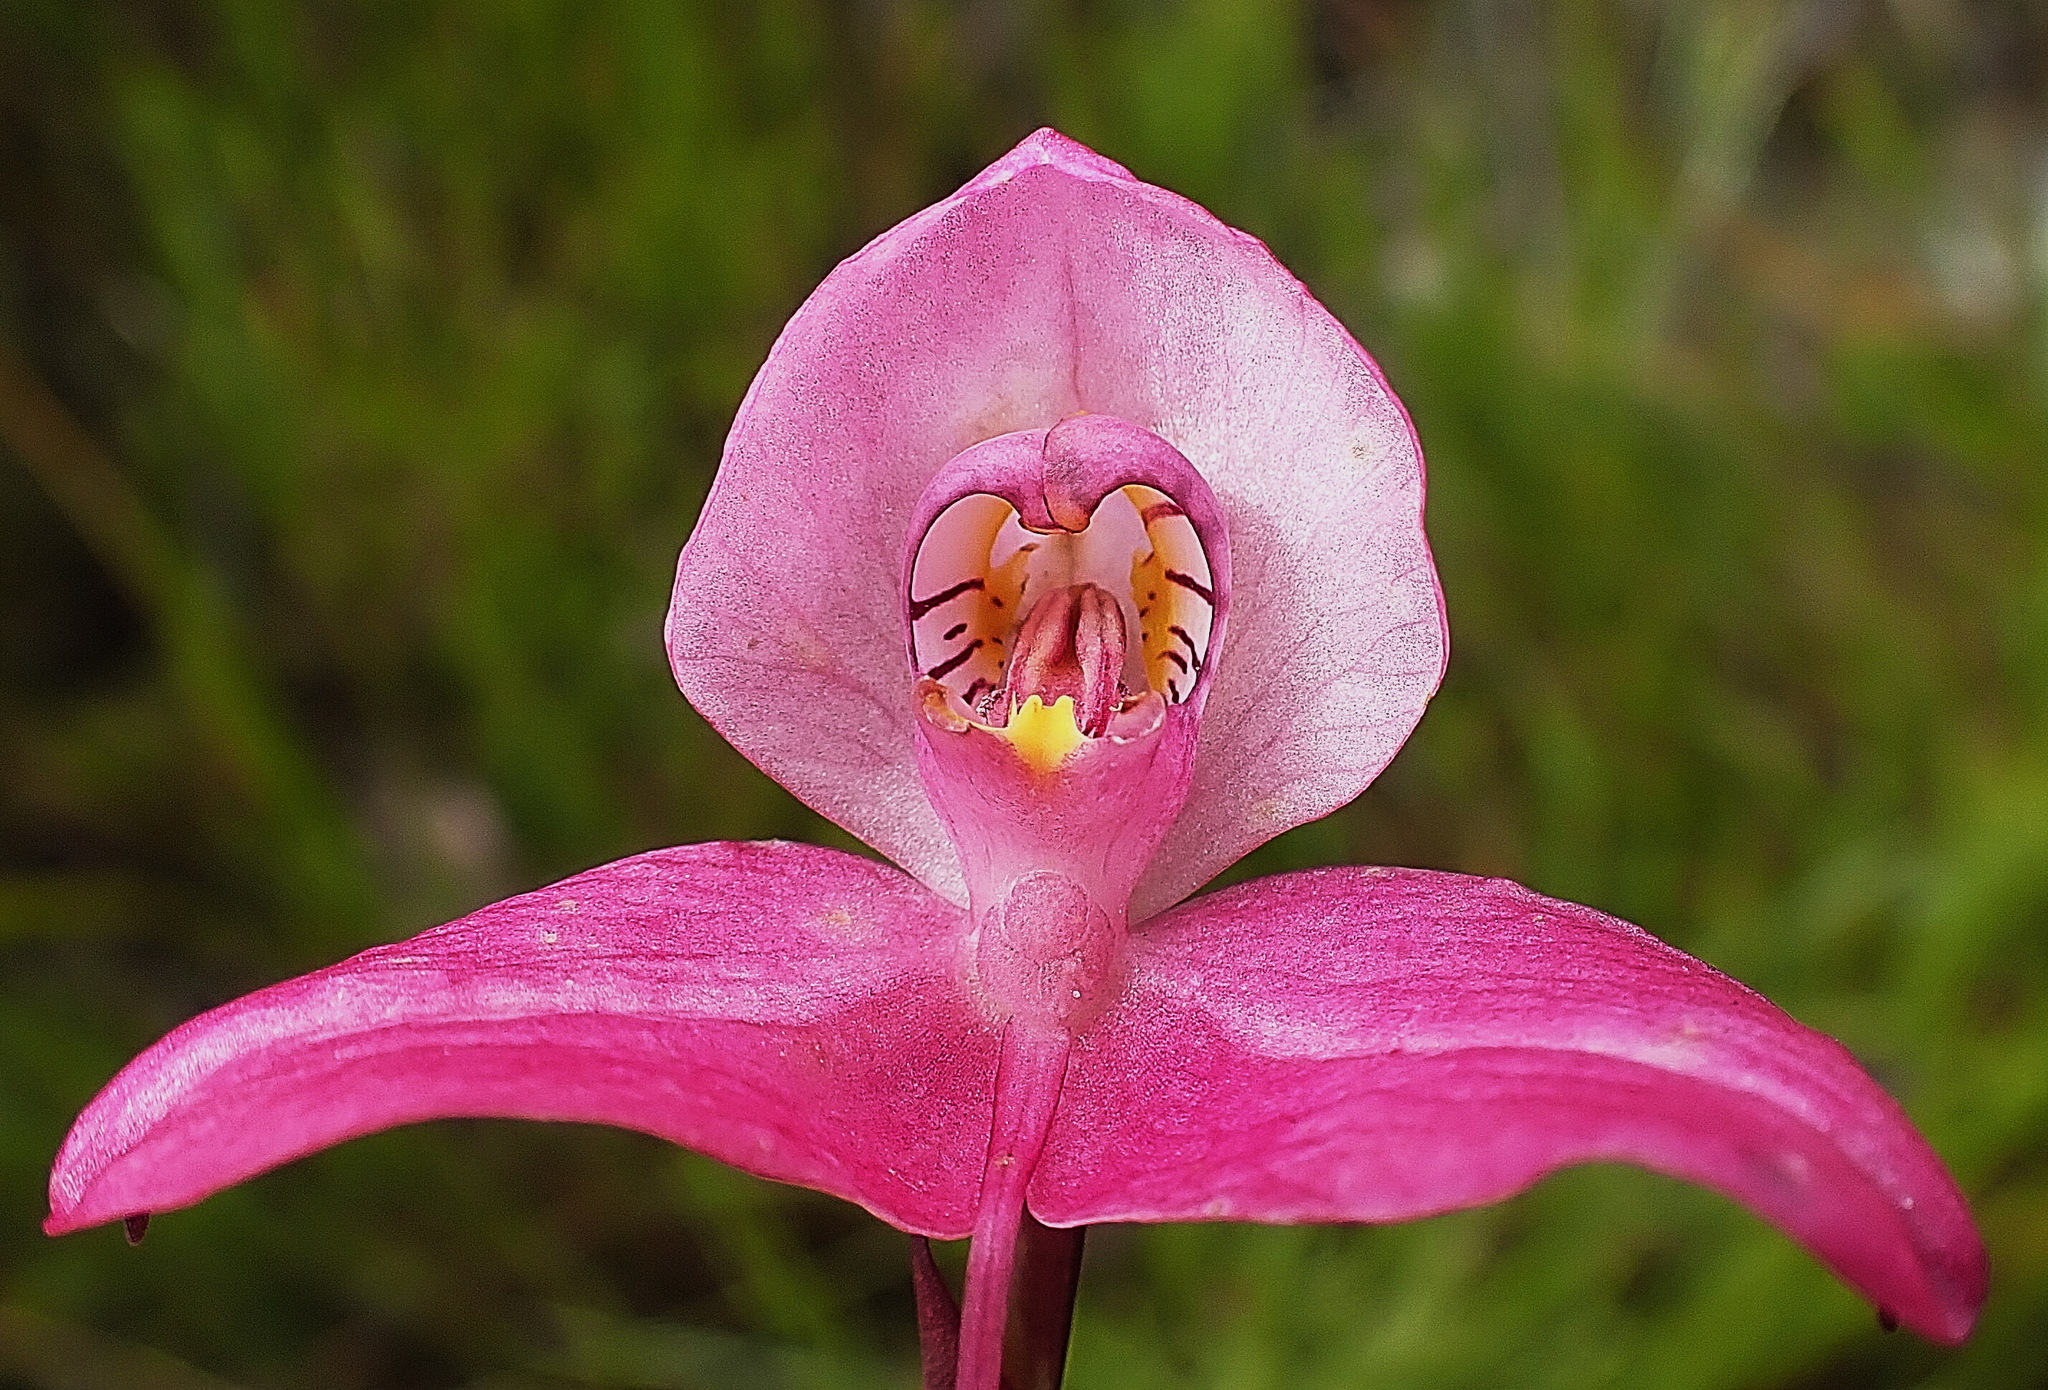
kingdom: Plantae
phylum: Tracheophyta
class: Liliopsida
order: Asparagales
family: Orchidaceae
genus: Disa
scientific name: Disa racemosa
